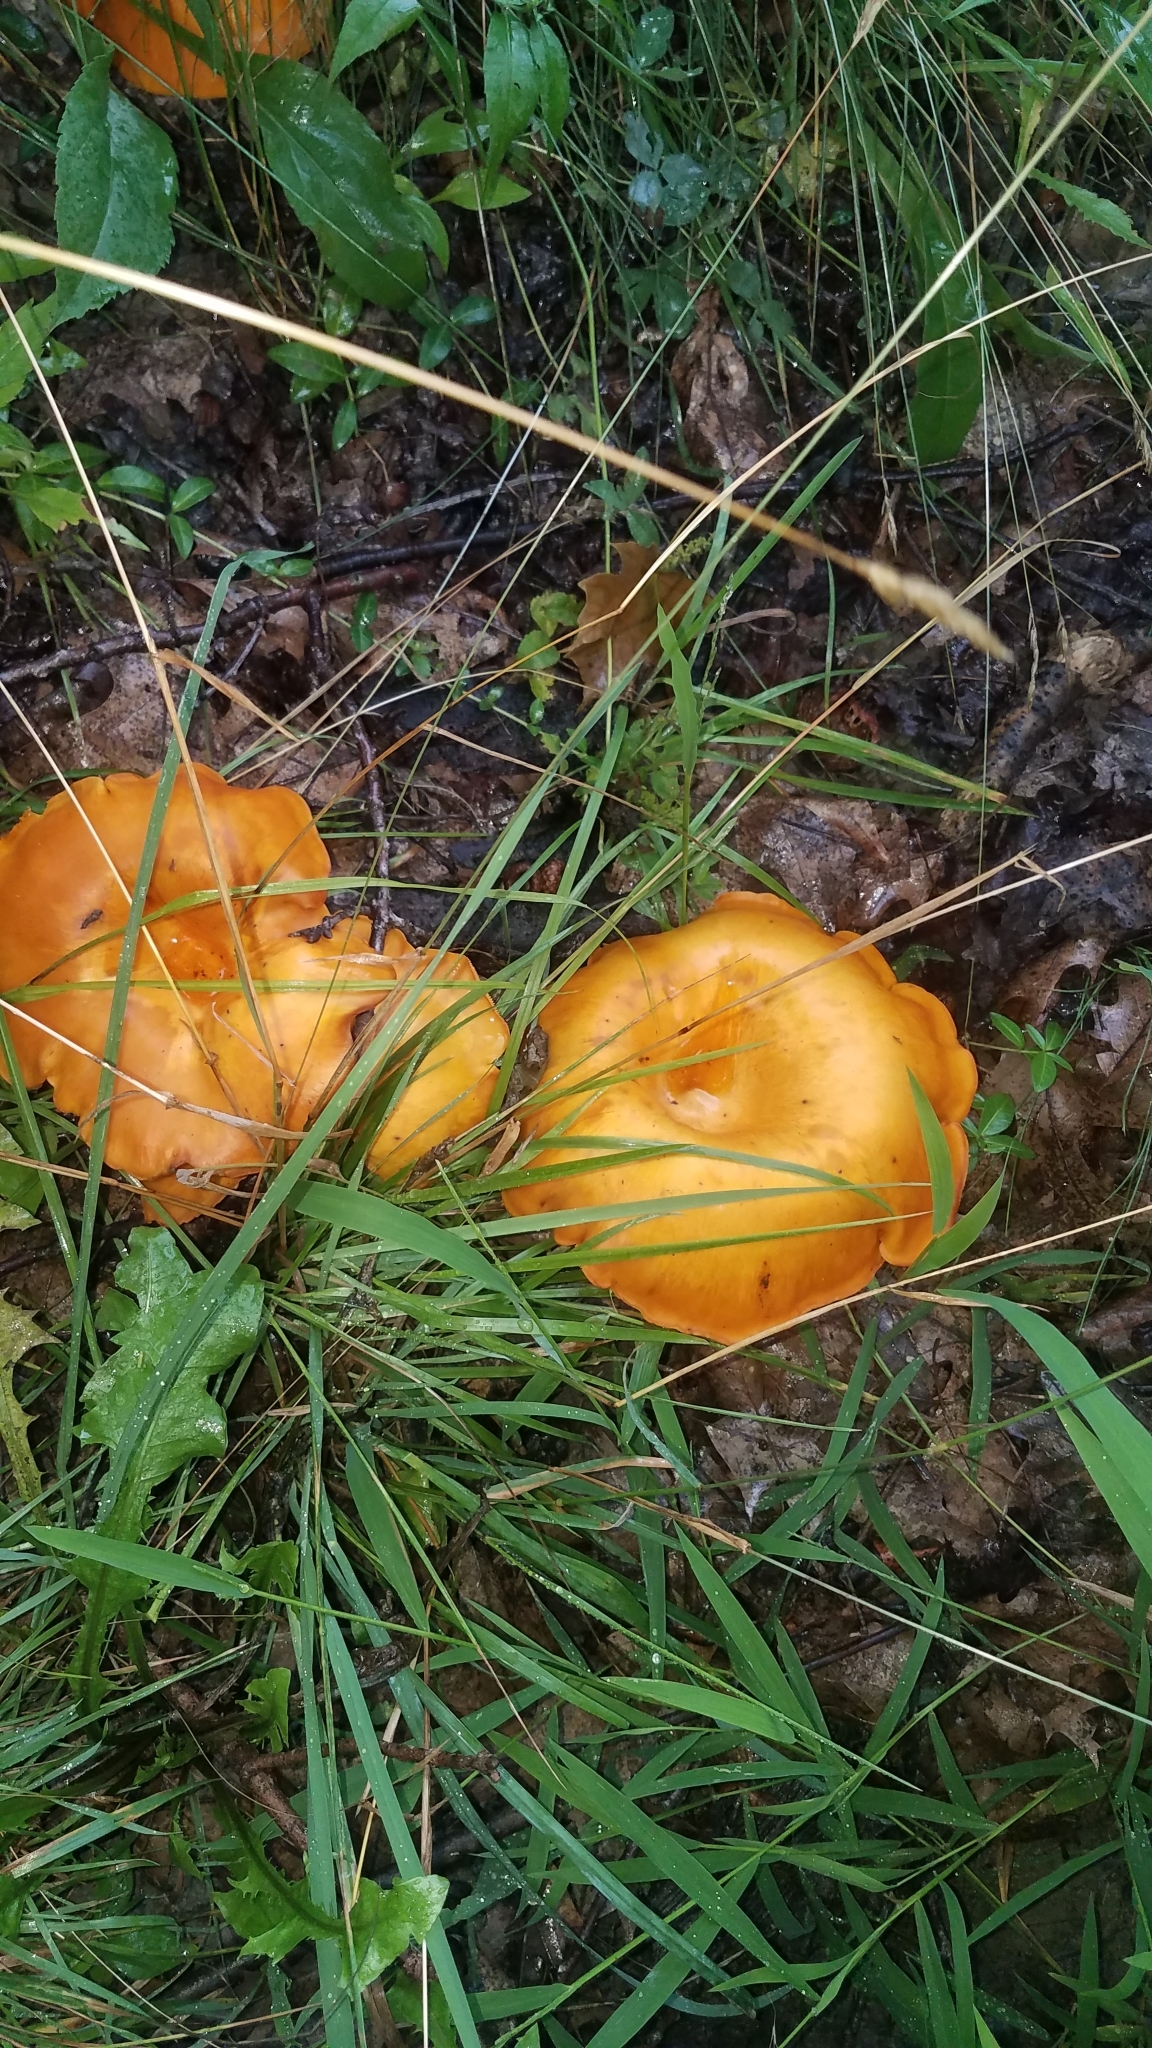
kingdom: Fungi
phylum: Basidiomycota
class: Agaricomycetes
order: Agaricales
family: Omphalotaceae
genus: Omphalotus
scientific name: Omphalotus illudens
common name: Jack o lantern
